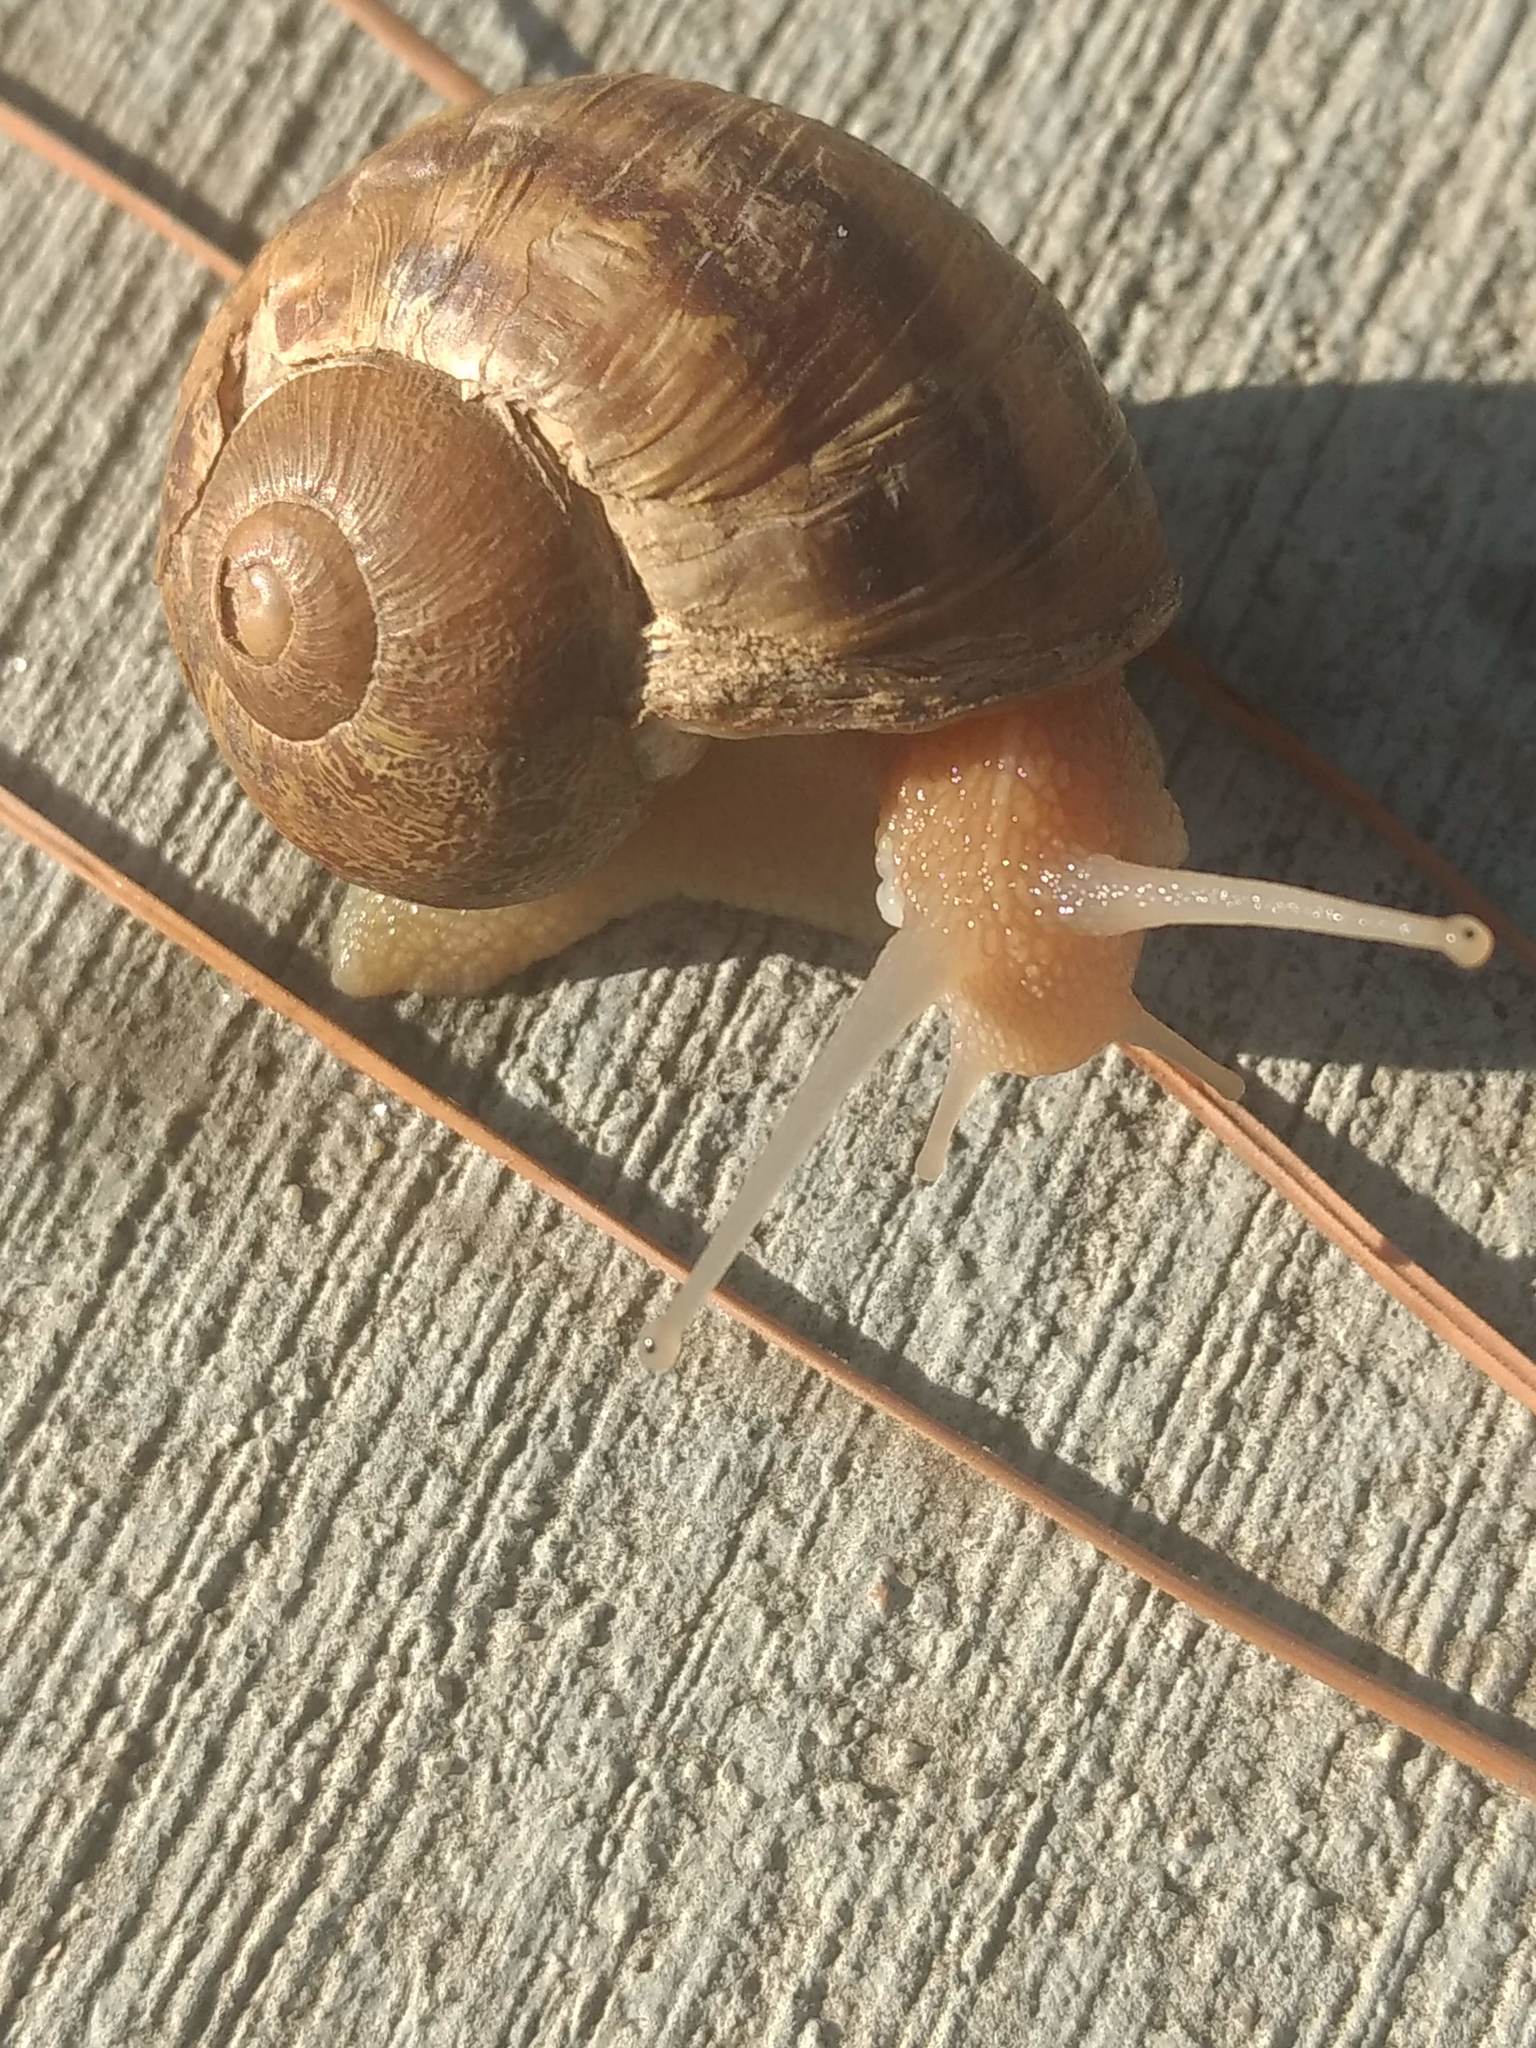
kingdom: Animalia
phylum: Mollusca
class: Gastropoda
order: Stylommatophora
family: Helicidae
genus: Cornu
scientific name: Cornu aspersum
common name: Brown garden snail
